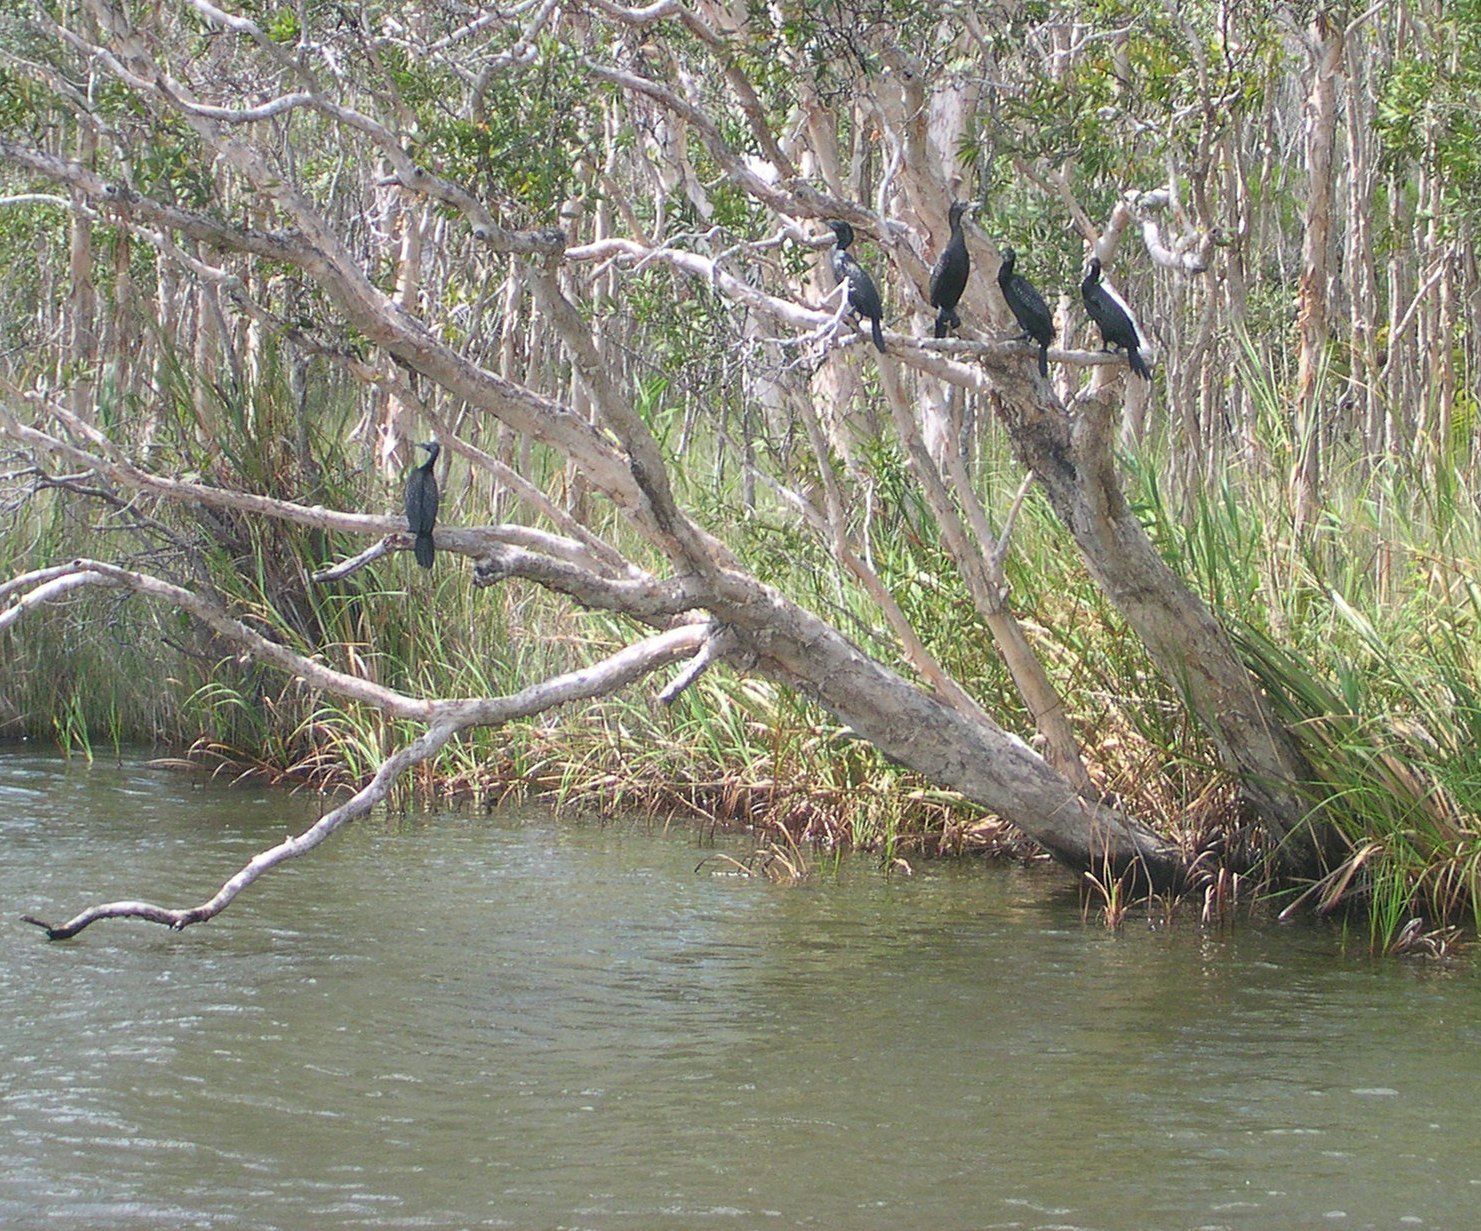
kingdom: Plantae
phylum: Tracheophyta
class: Magnoliopsida
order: Myrtales
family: Myrtaceae
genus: Melaleuca
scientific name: Melaleuca quinquenervia
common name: Punktree
